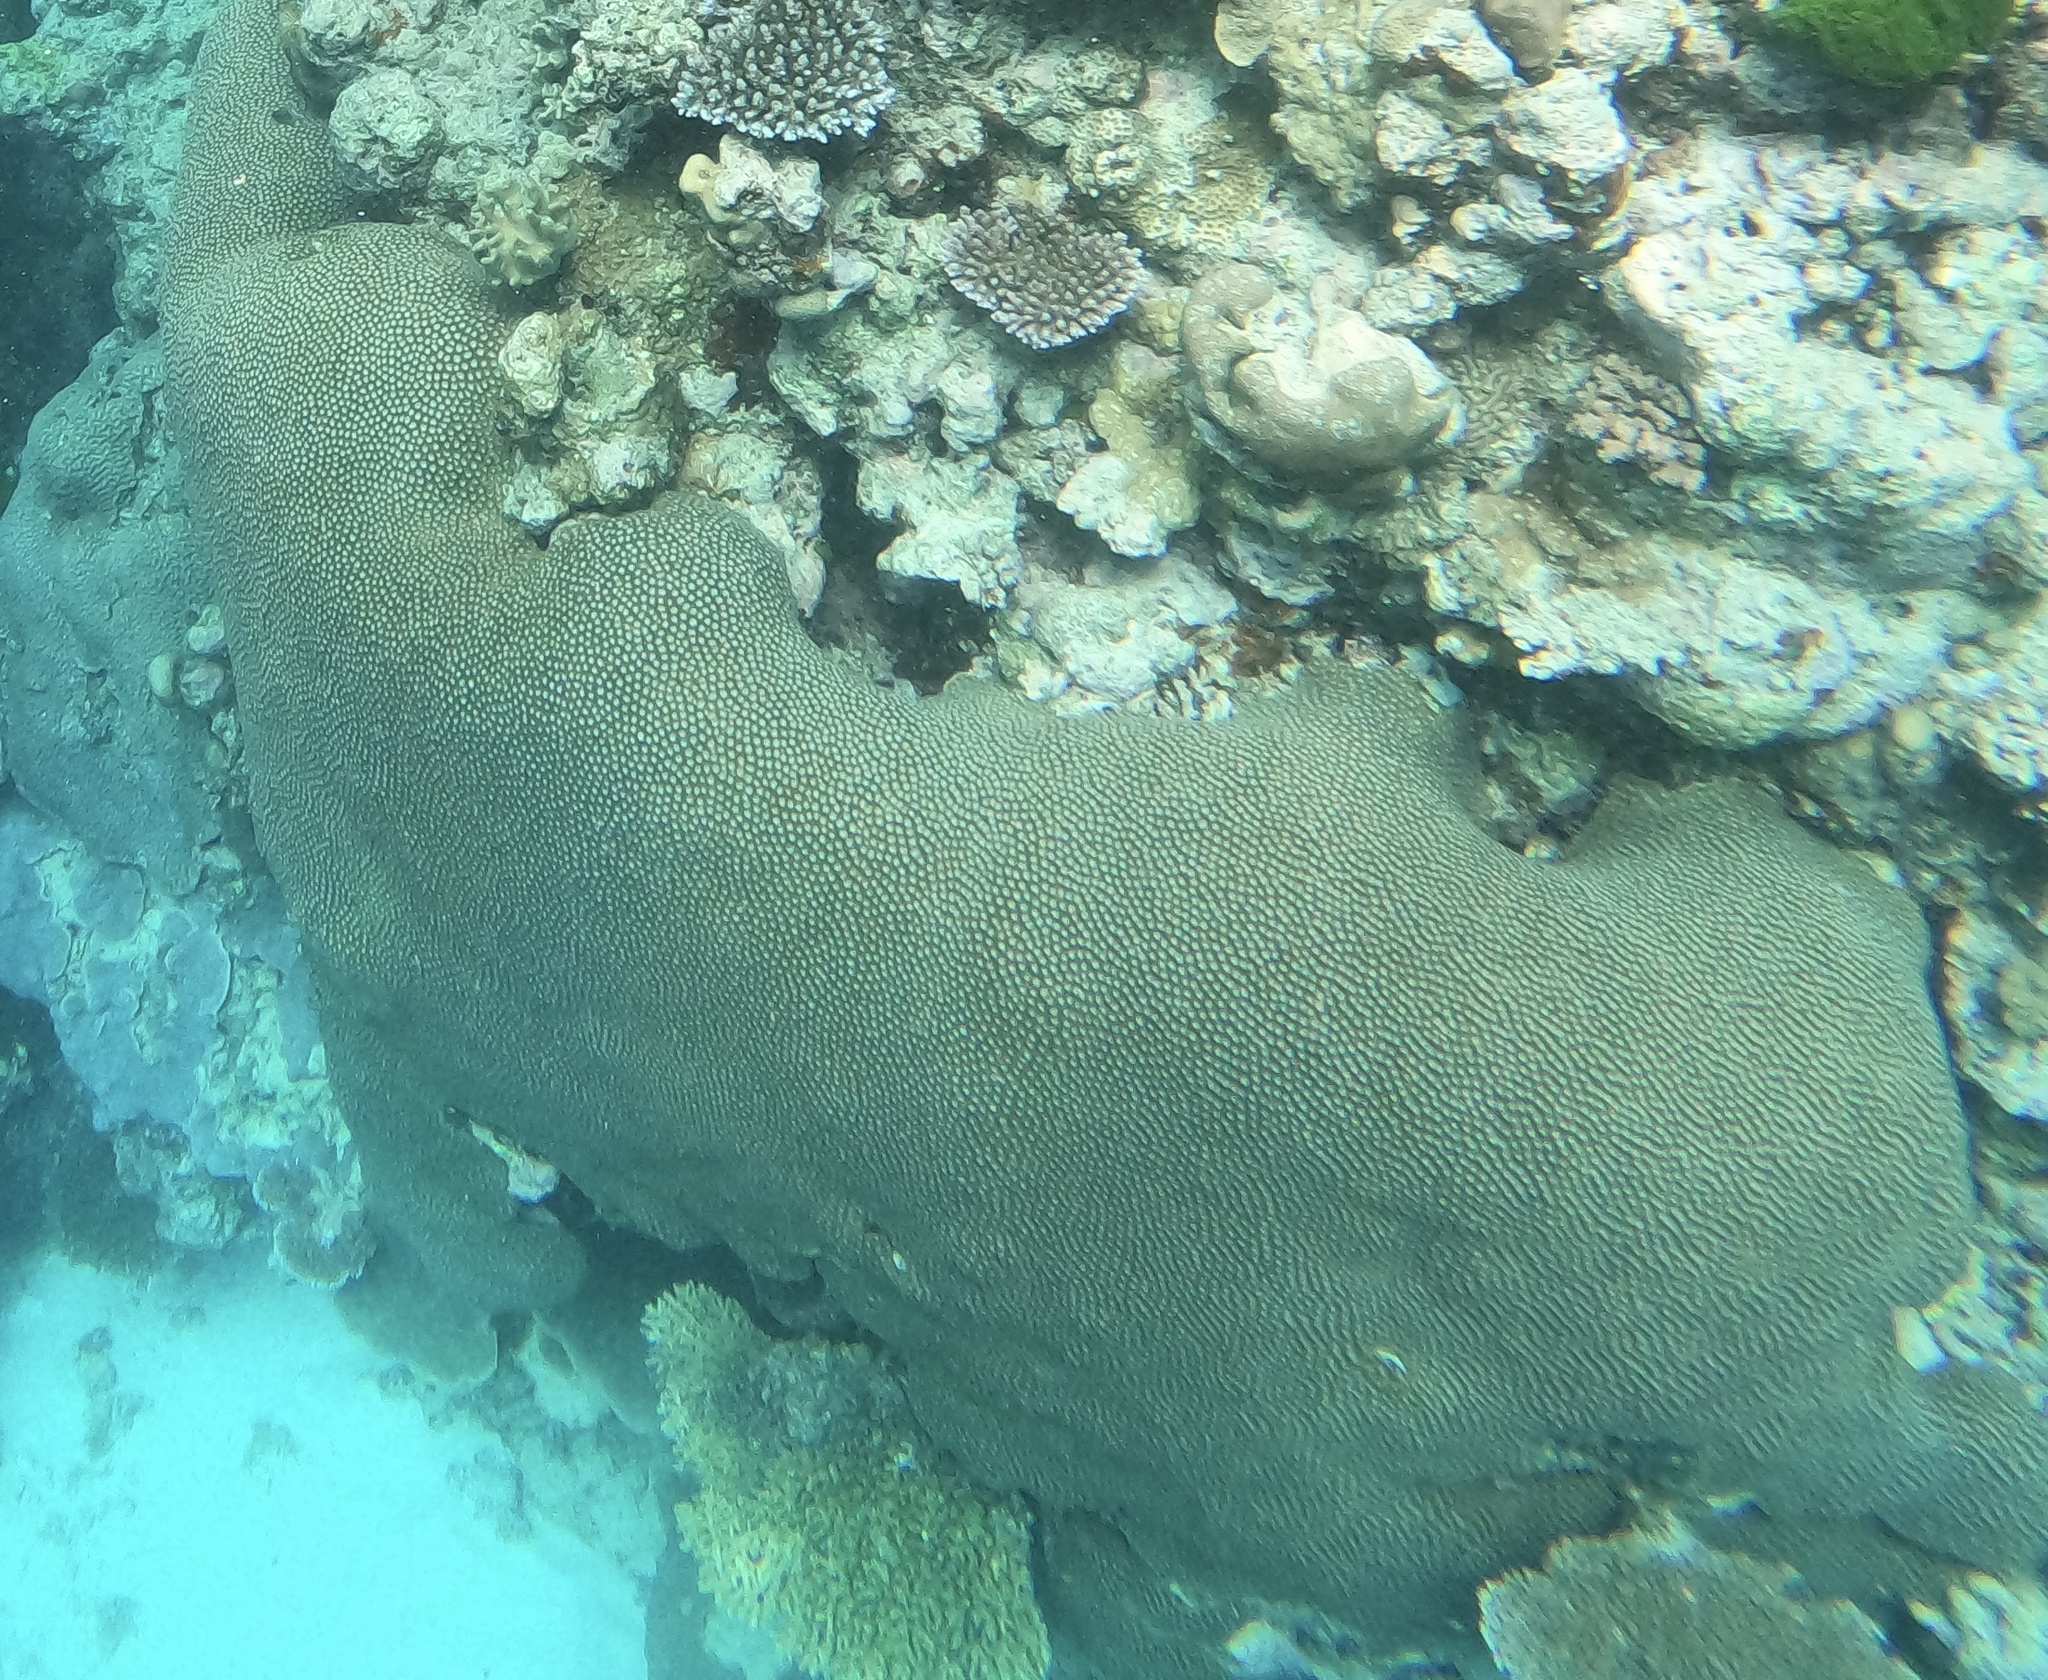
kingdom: Animalia
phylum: Cnidaria
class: Anthozoa
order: Scleractinia
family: Diploastraeidae
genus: Diploastrea
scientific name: Diploastrea heliopora
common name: Double-star coral
